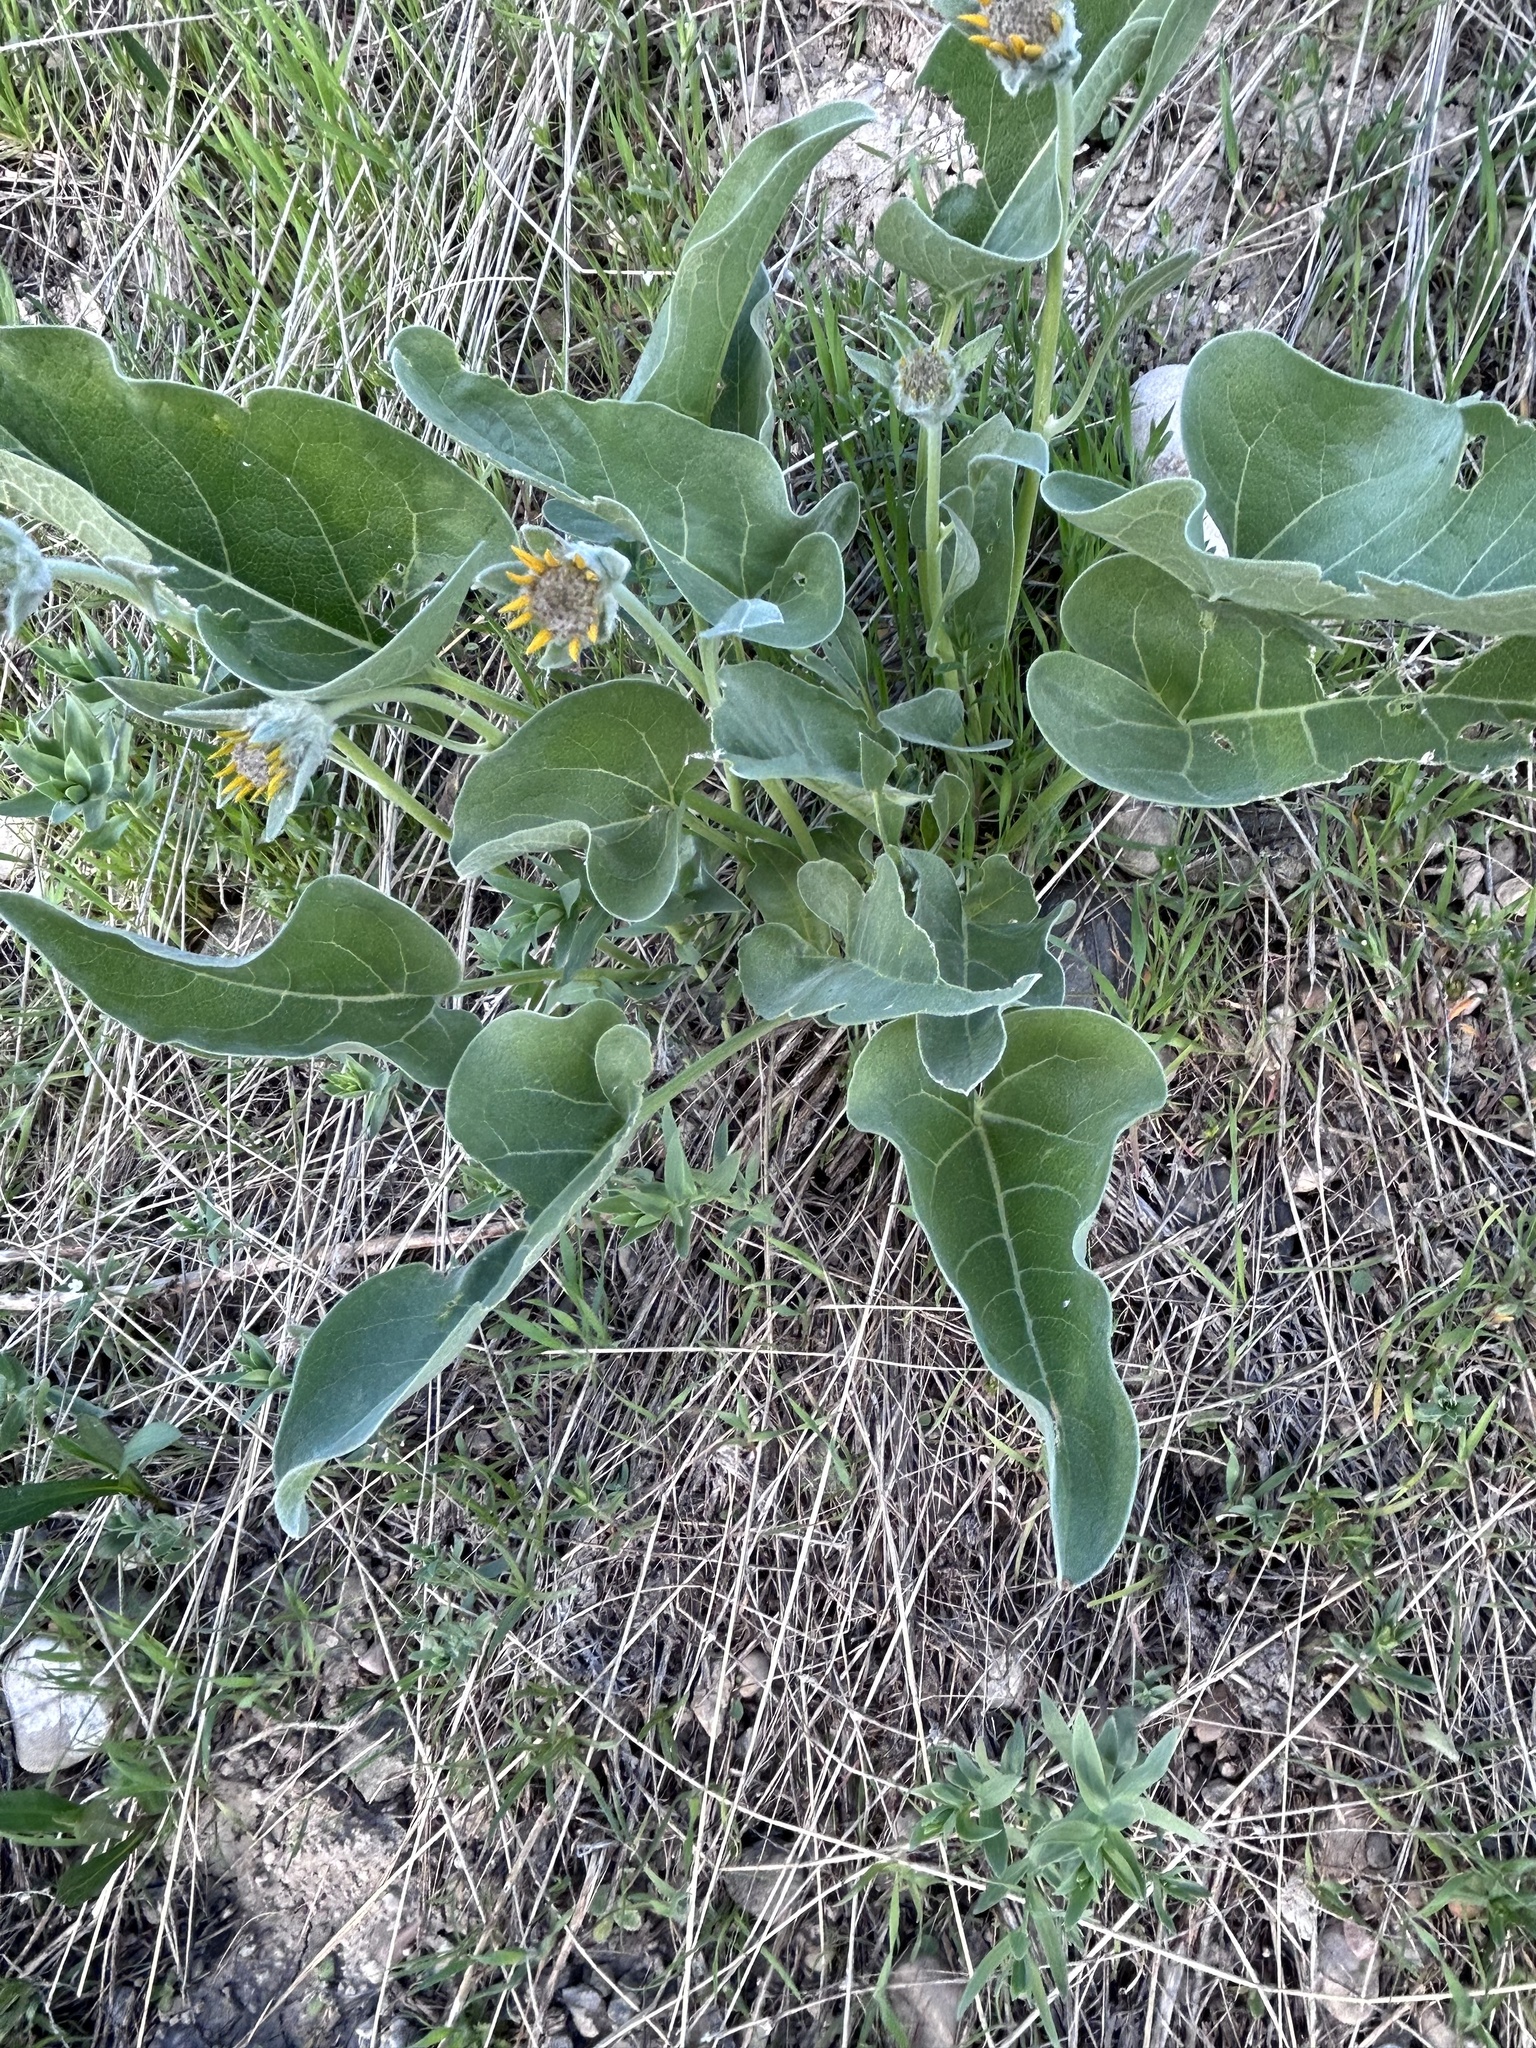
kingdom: Plantae
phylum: Tracheophyta
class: Magnoliopsida
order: Asterales
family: Asteraceae
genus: Wyethia
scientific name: Wyethia sagittata
